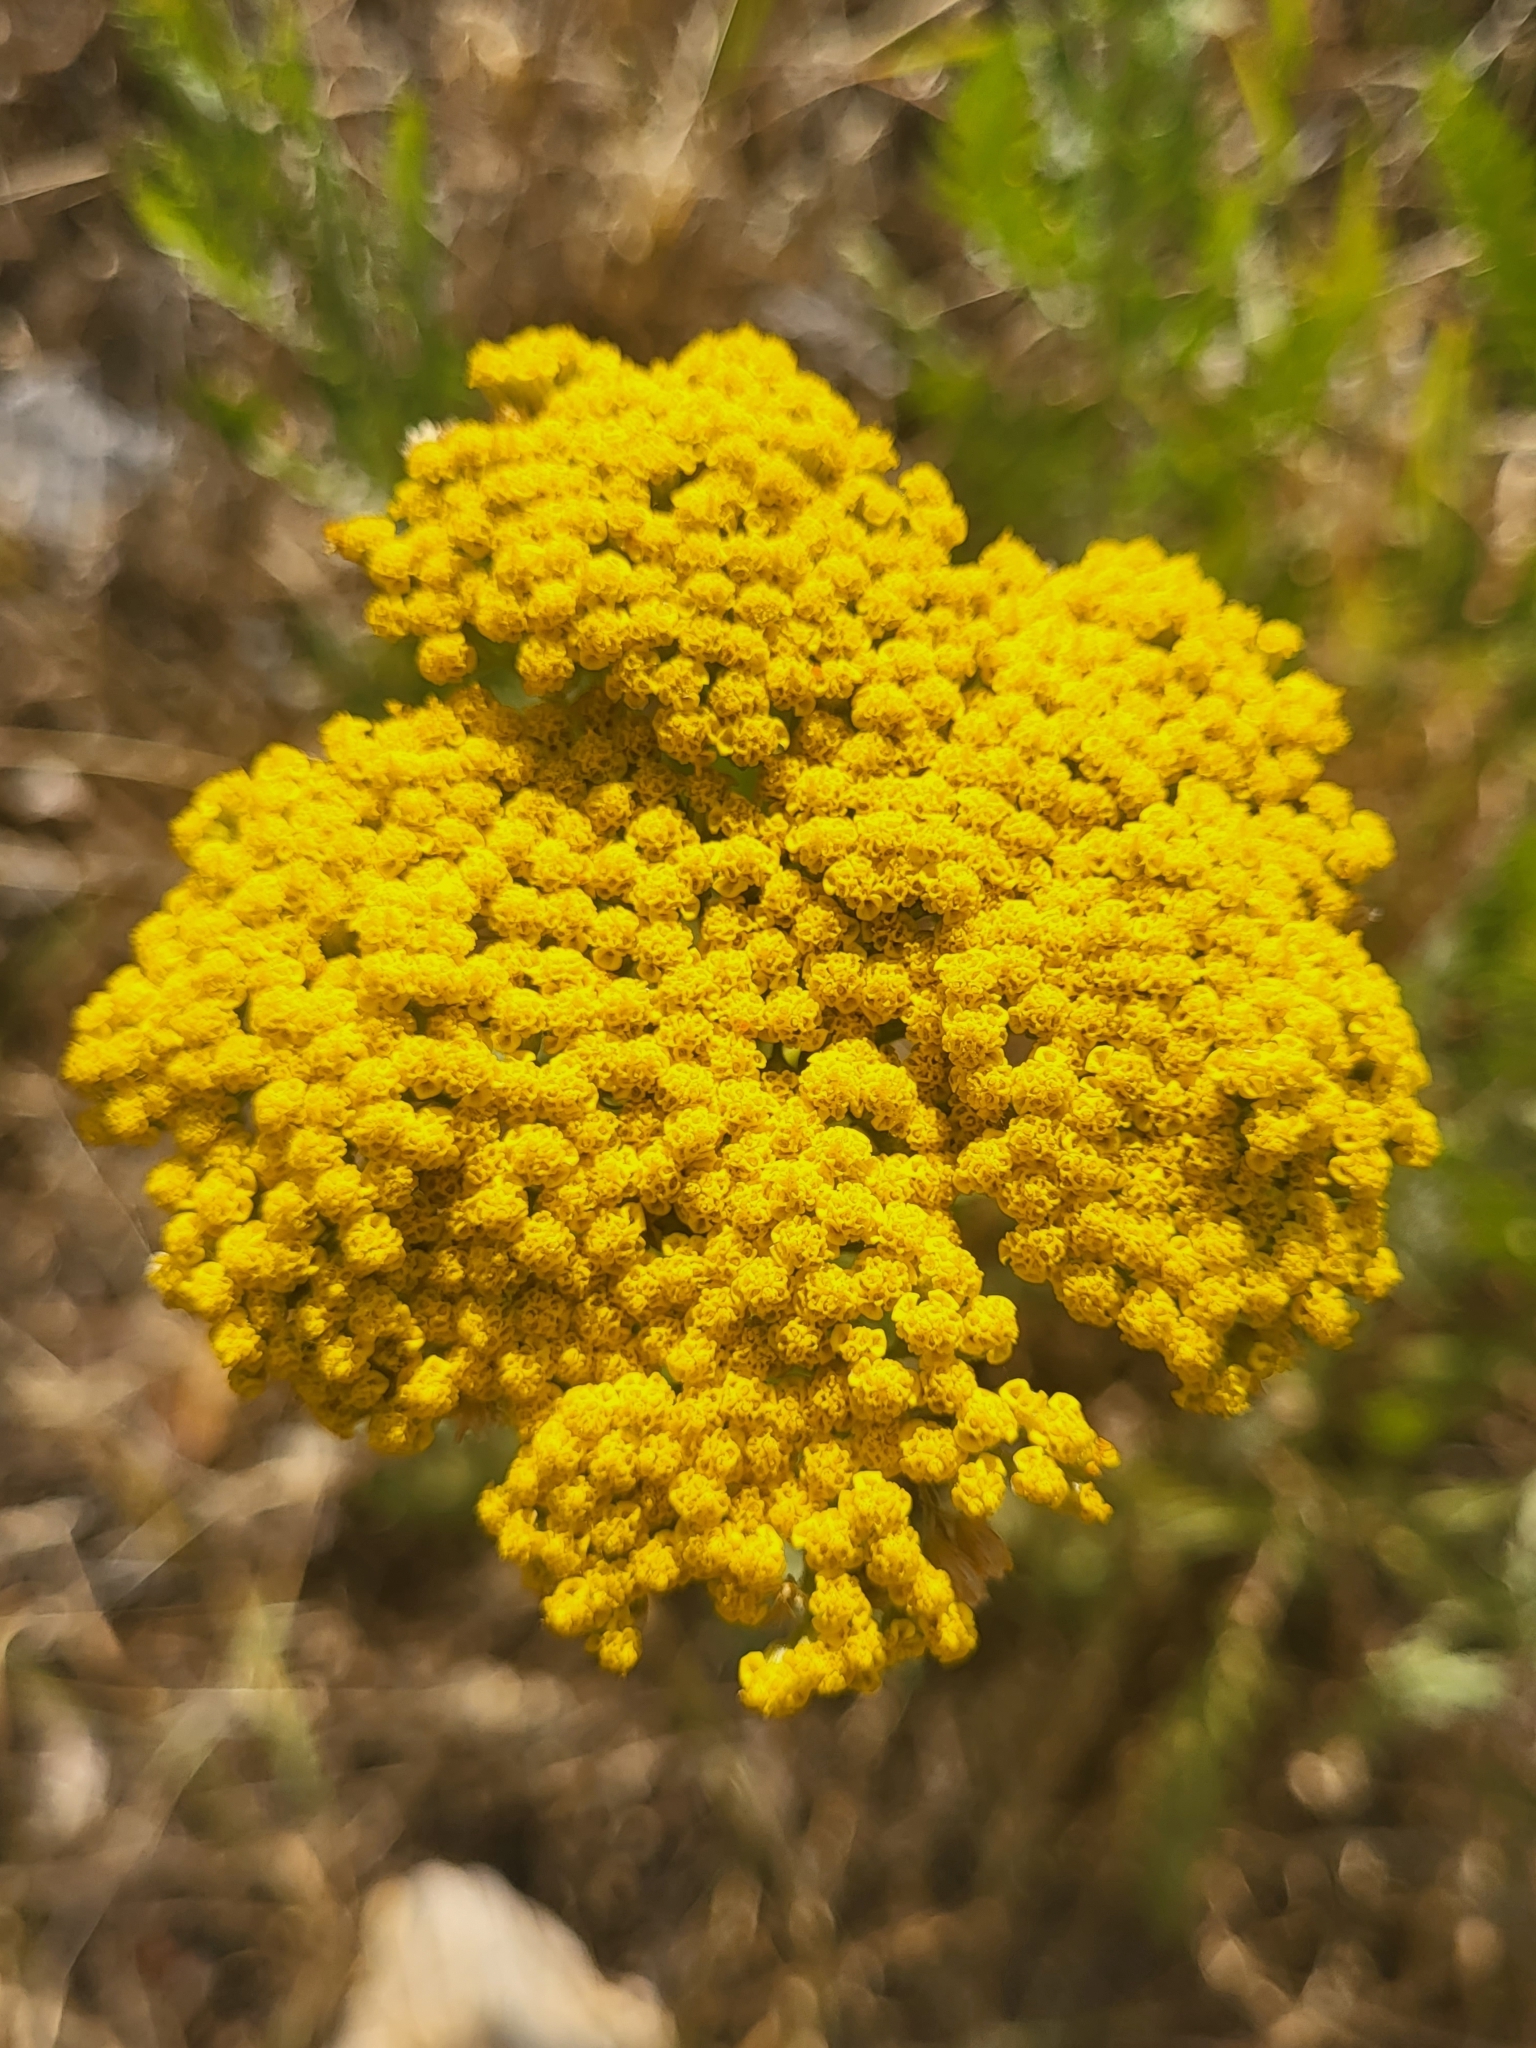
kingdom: Plantae
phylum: Tracheophyta
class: Magnoliopsida
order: Asterales
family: Asteraceae
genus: Achillea
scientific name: Achillea arabica
